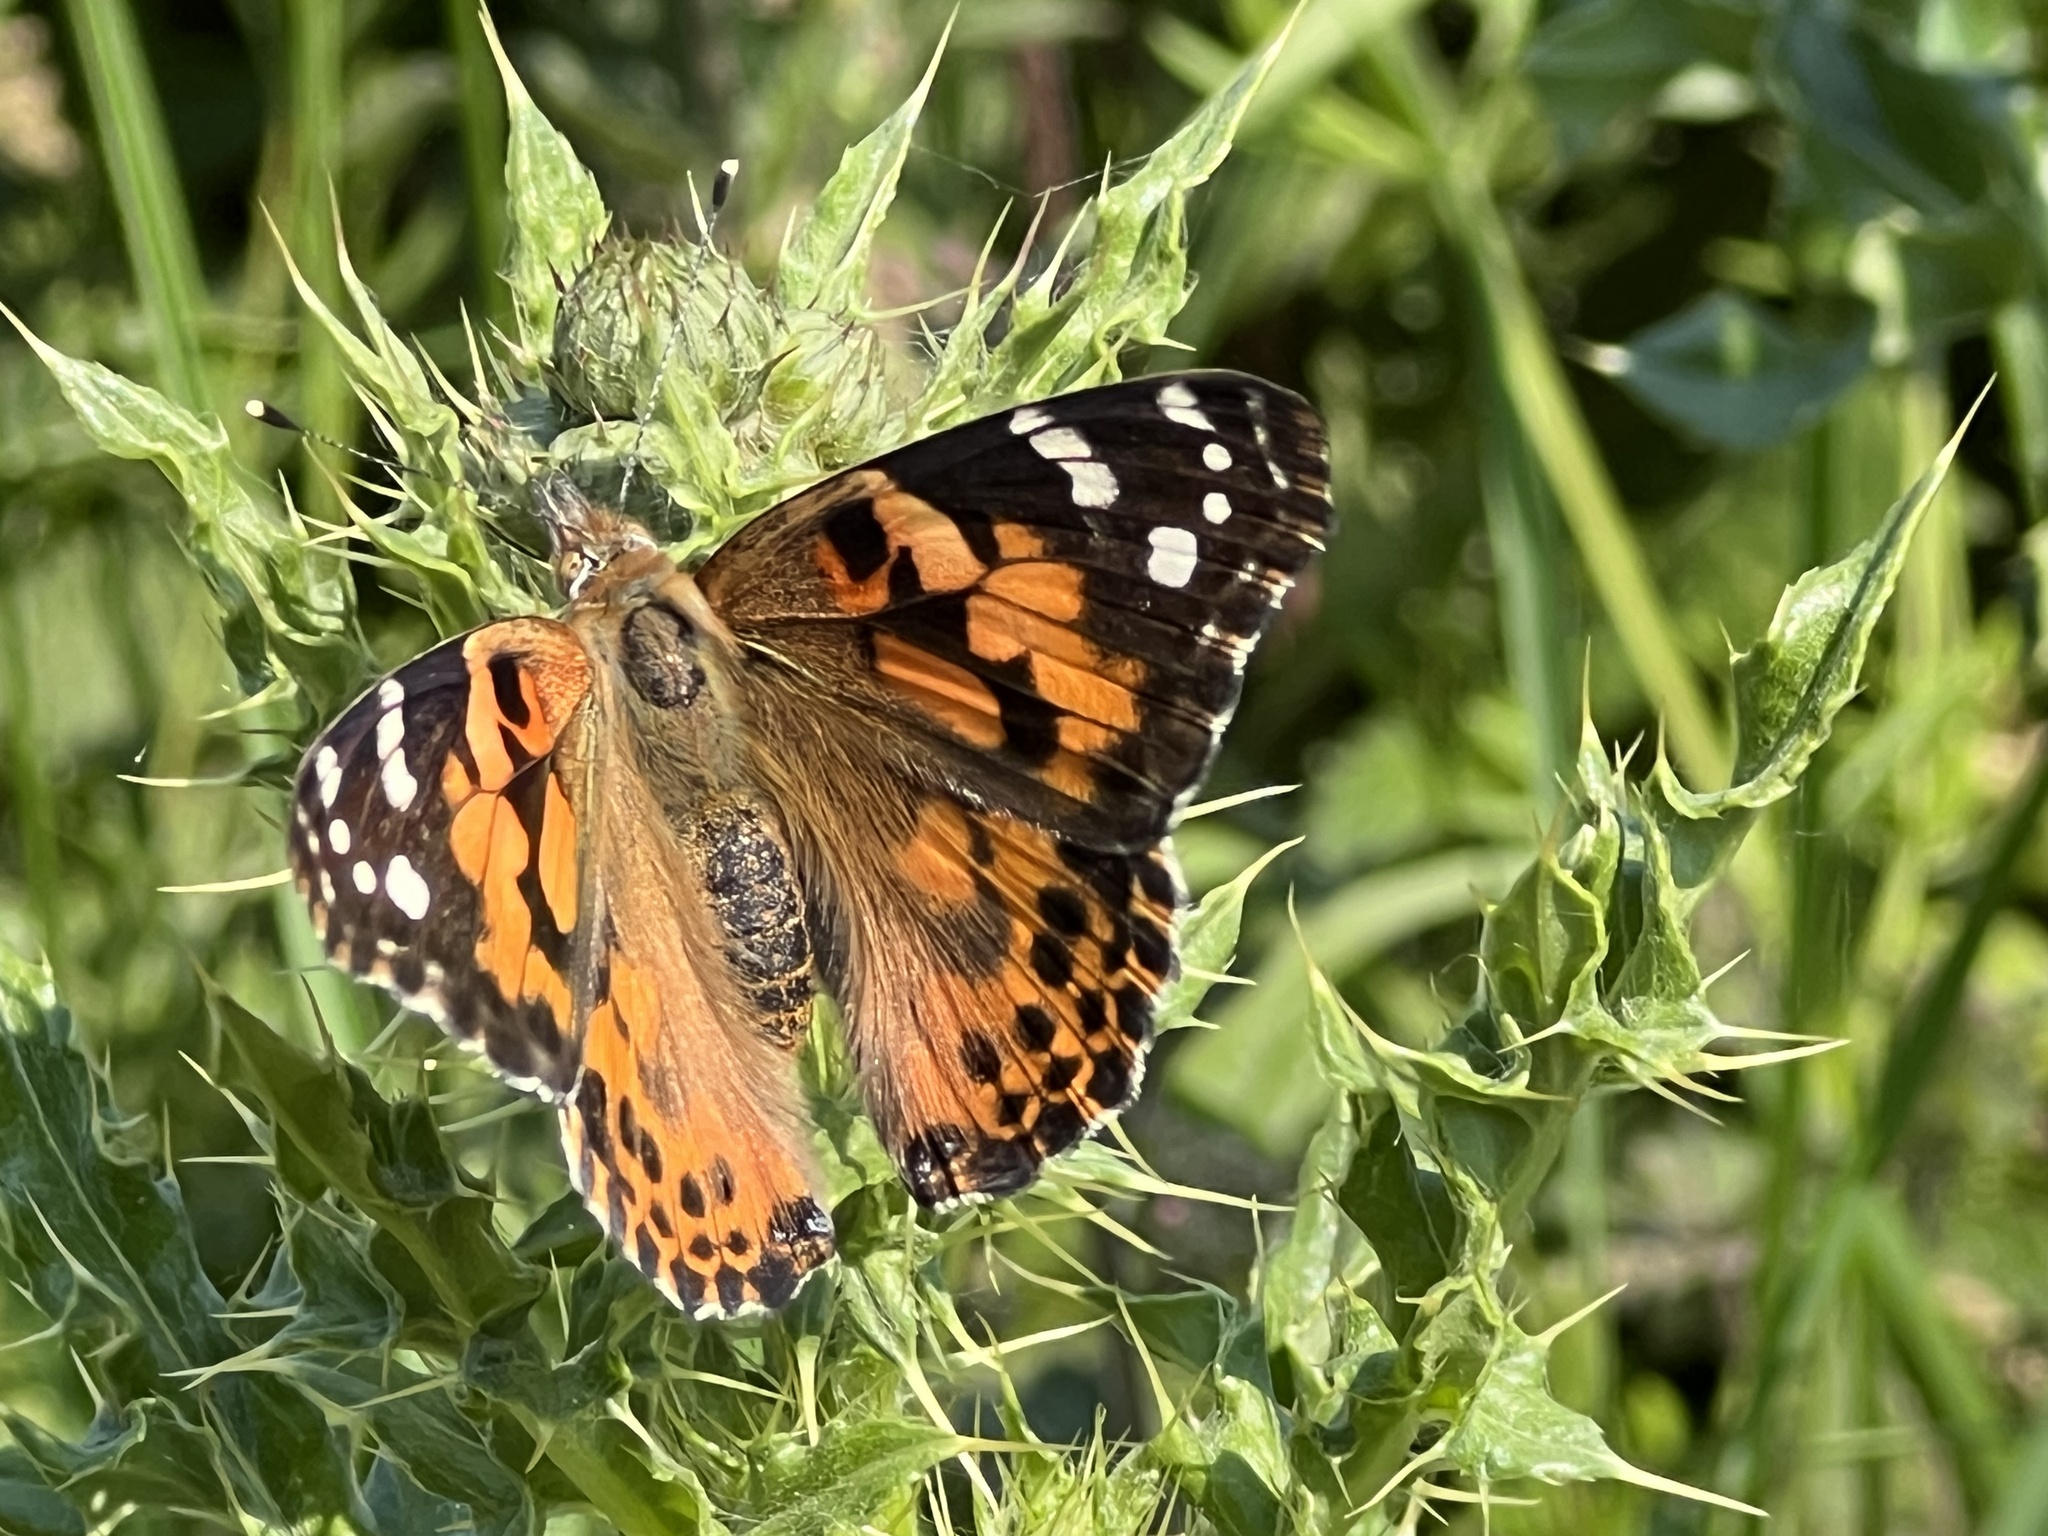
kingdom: Animalia
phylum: Arthropoda
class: Insecta
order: Lepidoptera
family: Nymphalidae
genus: Vanessa
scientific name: Vanessa cardui
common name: Painted lady
